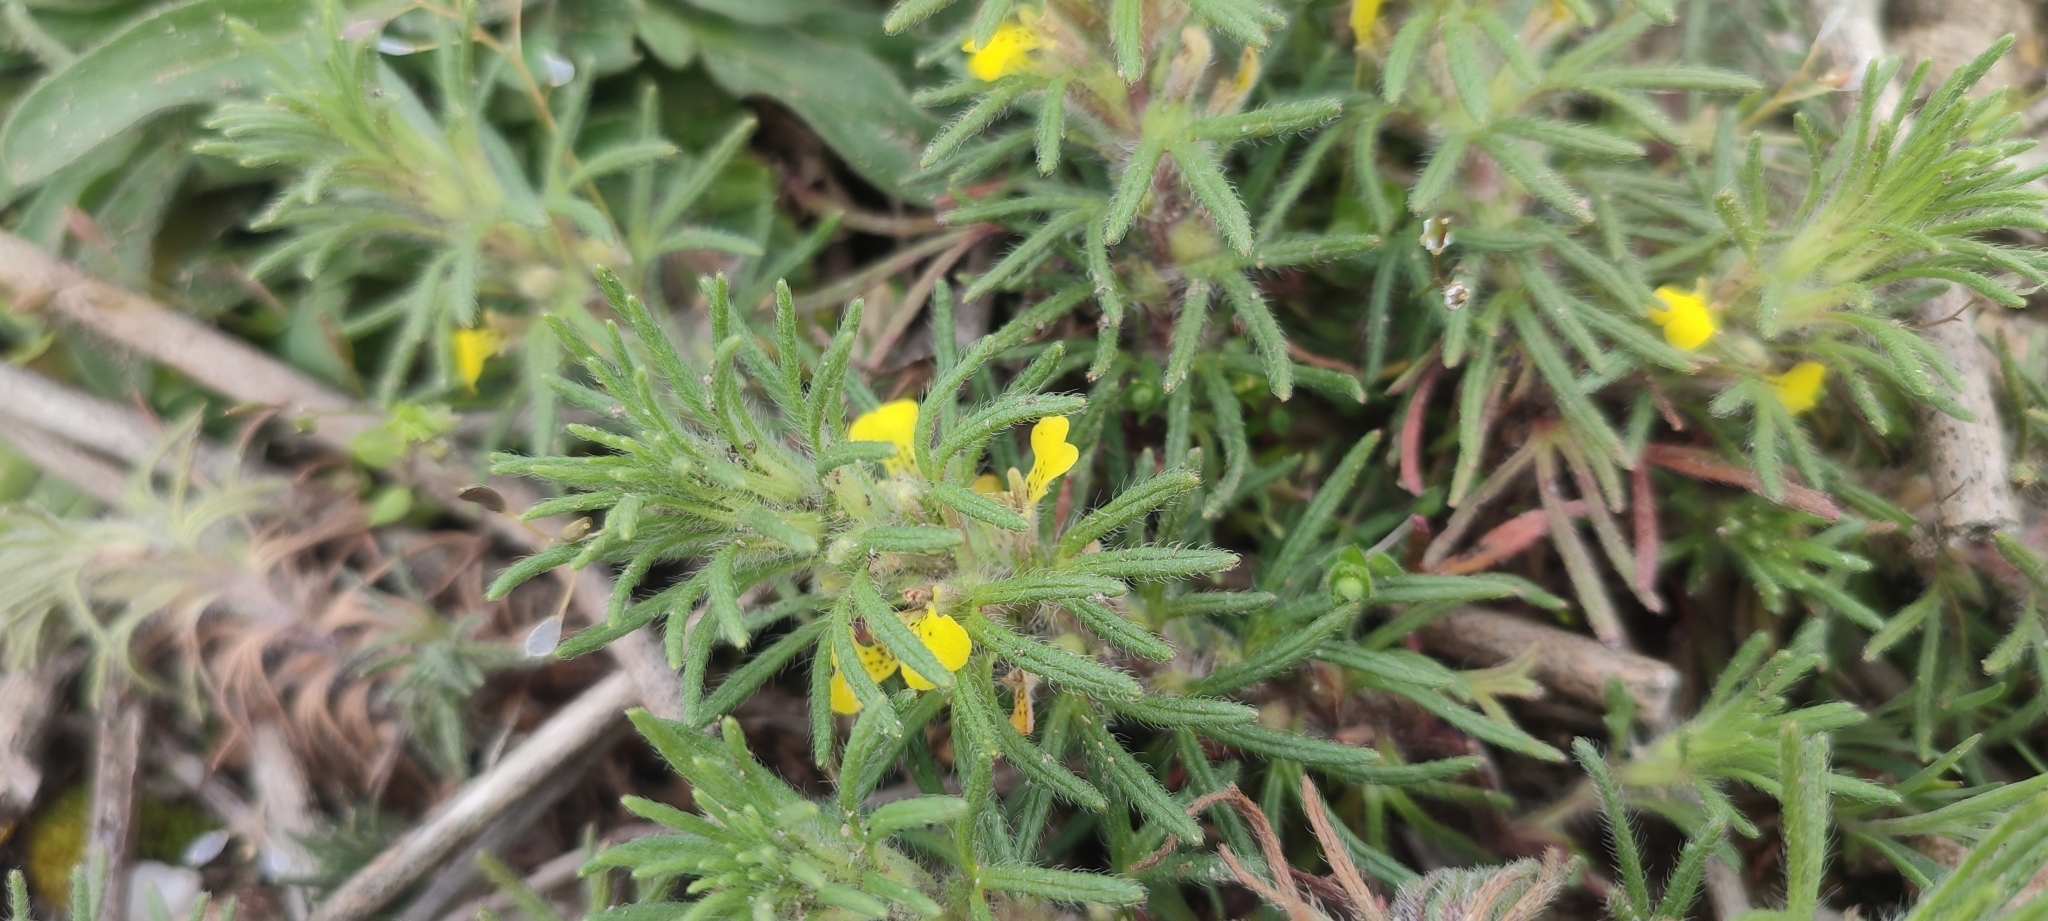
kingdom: Plantae
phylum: Tracheophyta
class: Magnoliopsida
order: Lamiales
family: Lamiaceae
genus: Ajuga
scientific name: Ajuga chamaepitys
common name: Ground-pine
